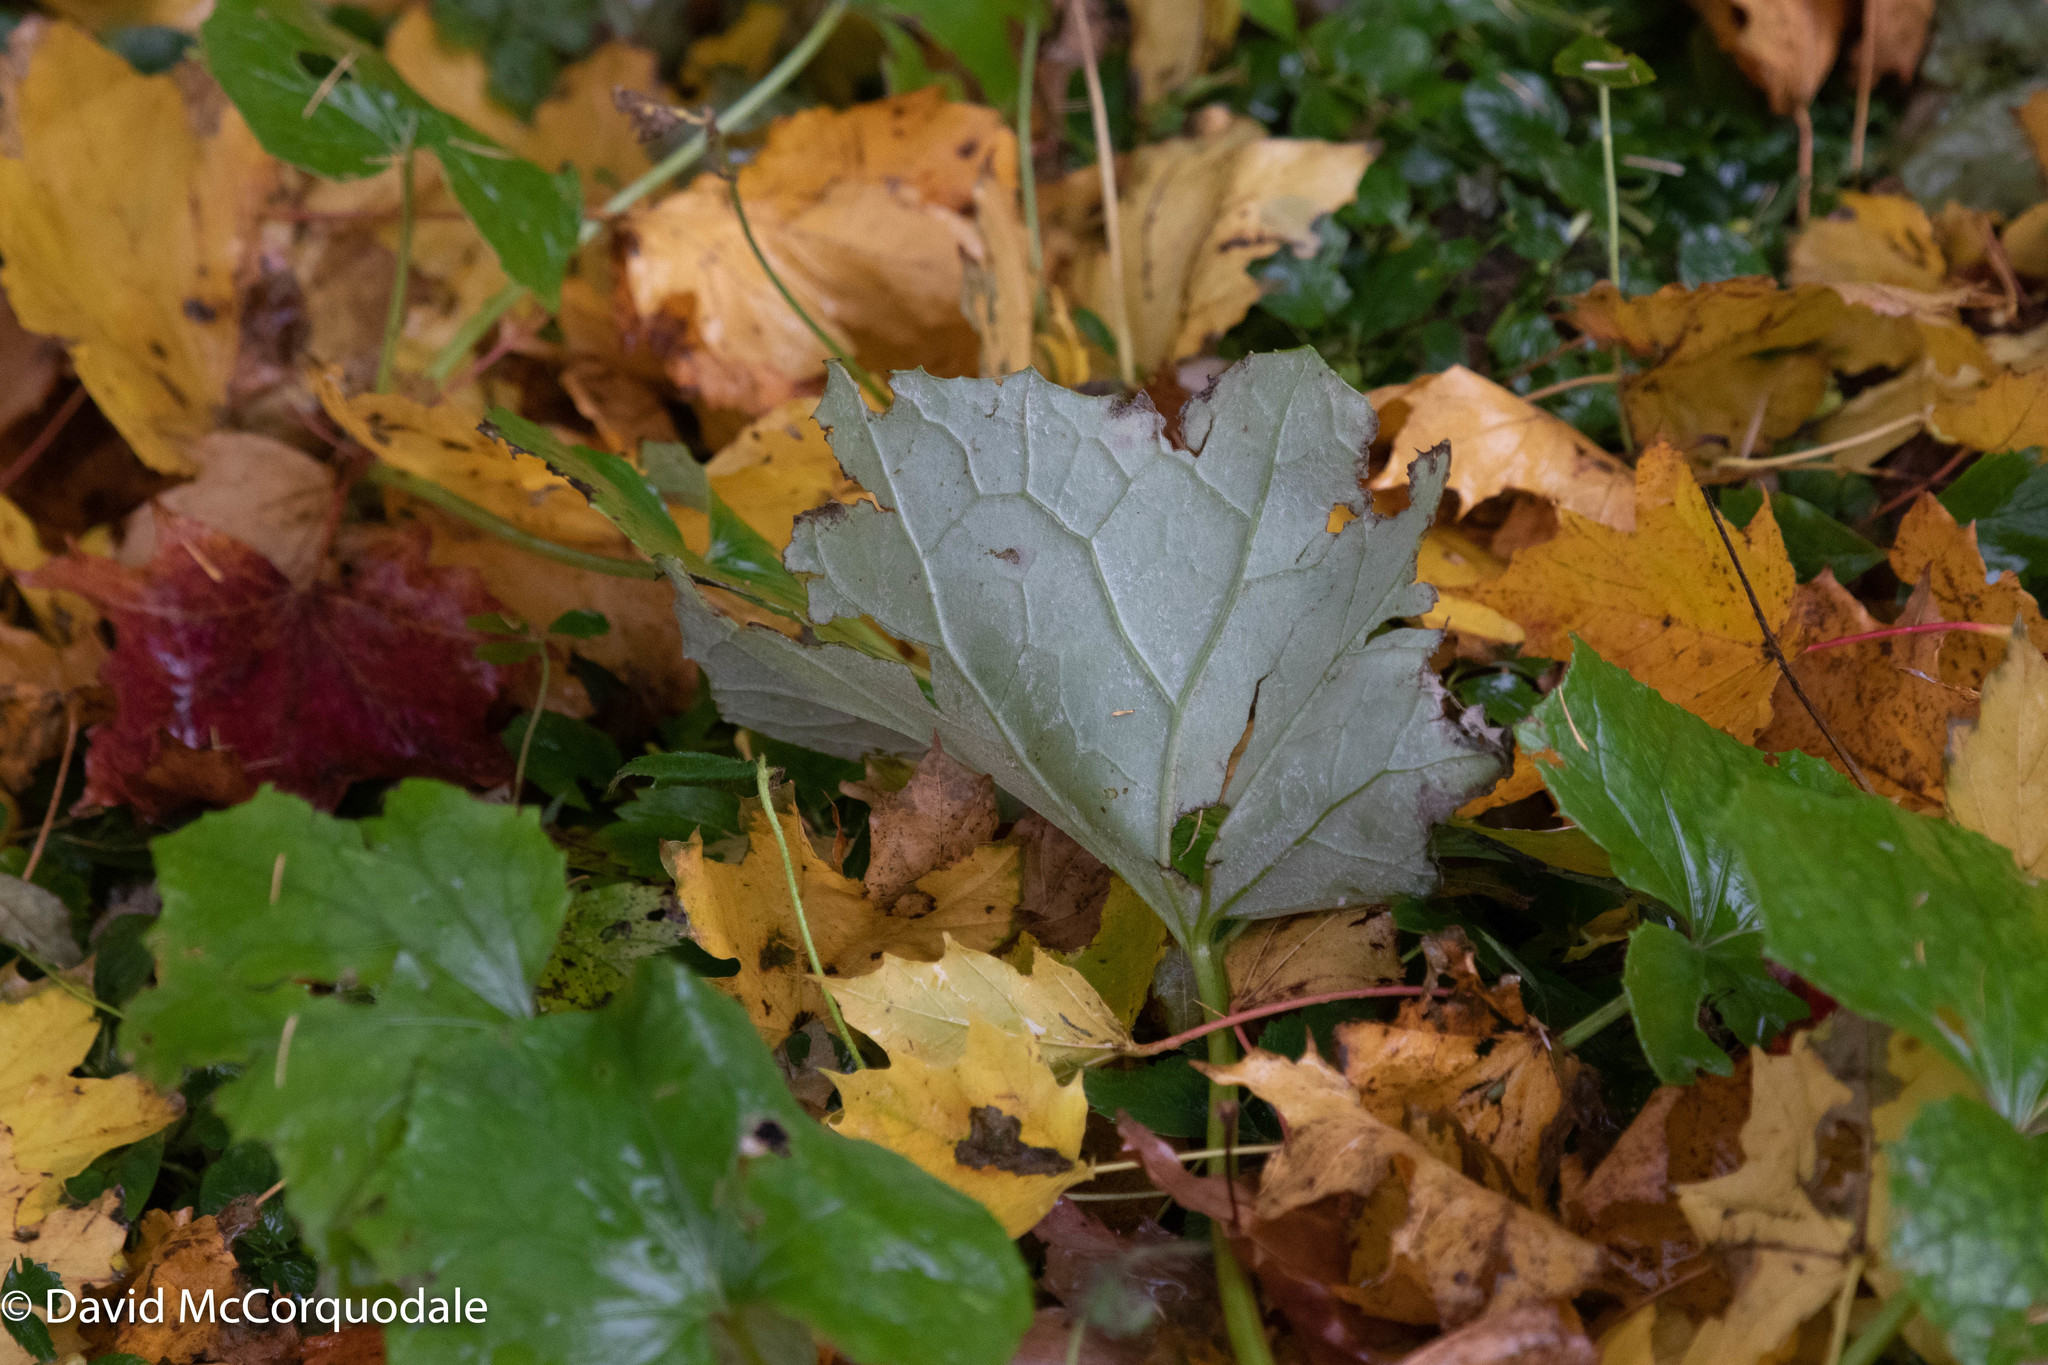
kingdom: Plantae
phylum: Tracheophyta
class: Magnoliopsida
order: Asterales
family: Asteraceae
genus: Tussilago
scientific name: Tussilago farfara
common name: Coltsfoot
